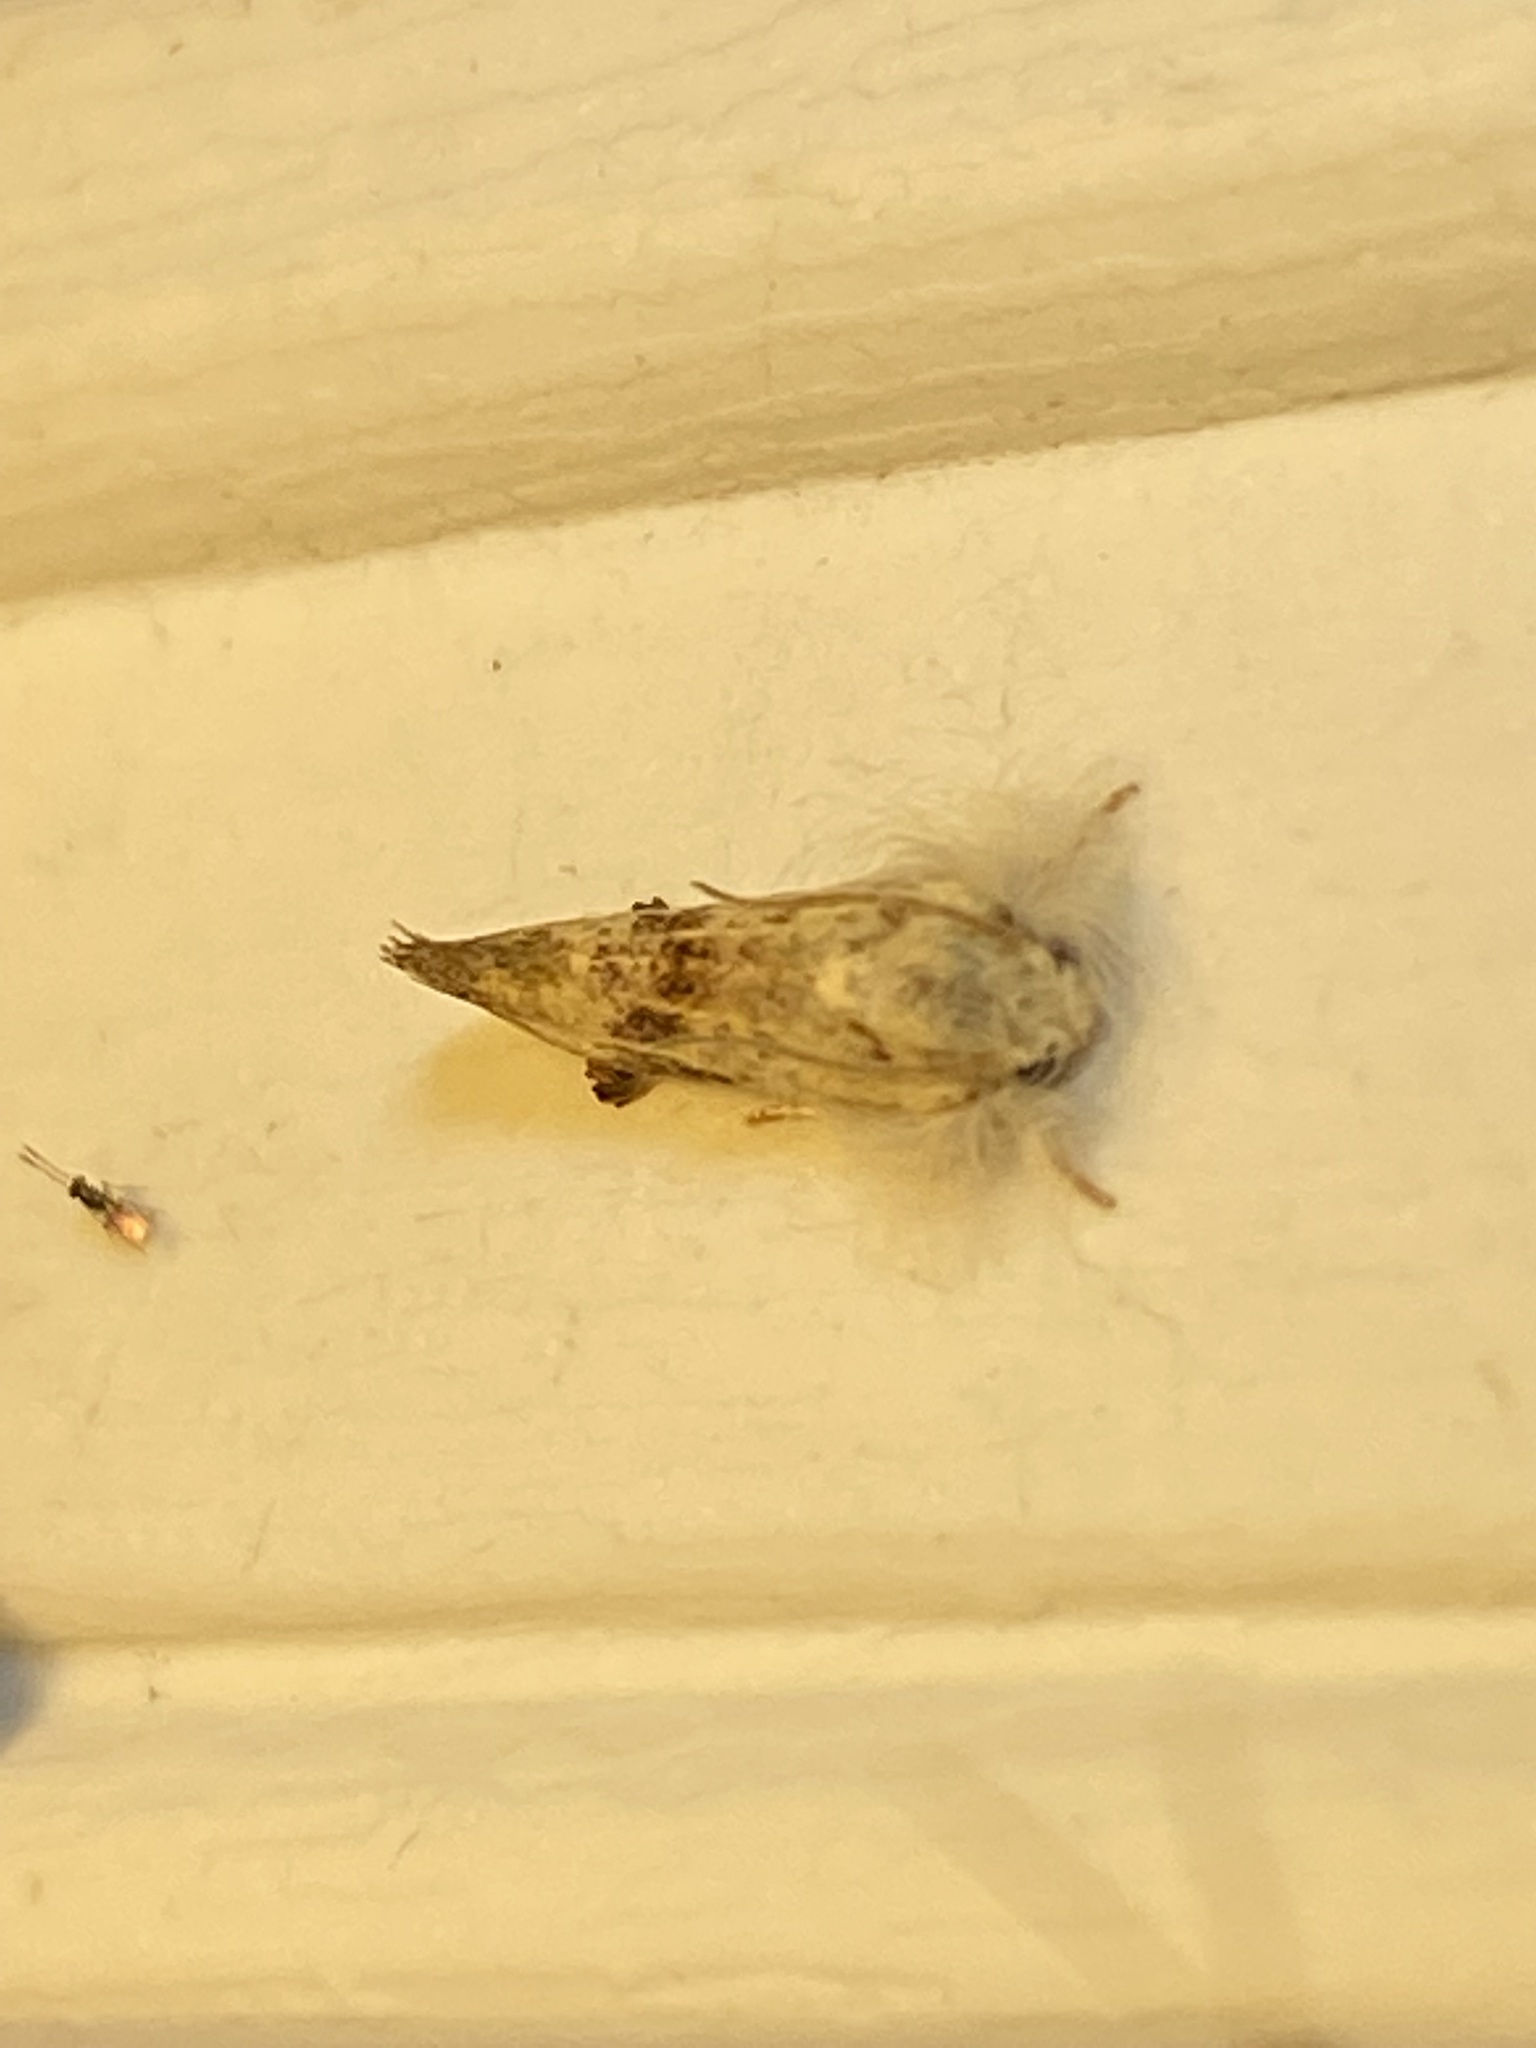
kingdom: Animalia
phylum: Arthropoda
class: Insecta
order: Lepidoptera
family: Tineidae
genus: Acrolophus
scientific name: Acrolophus mycetophagus
